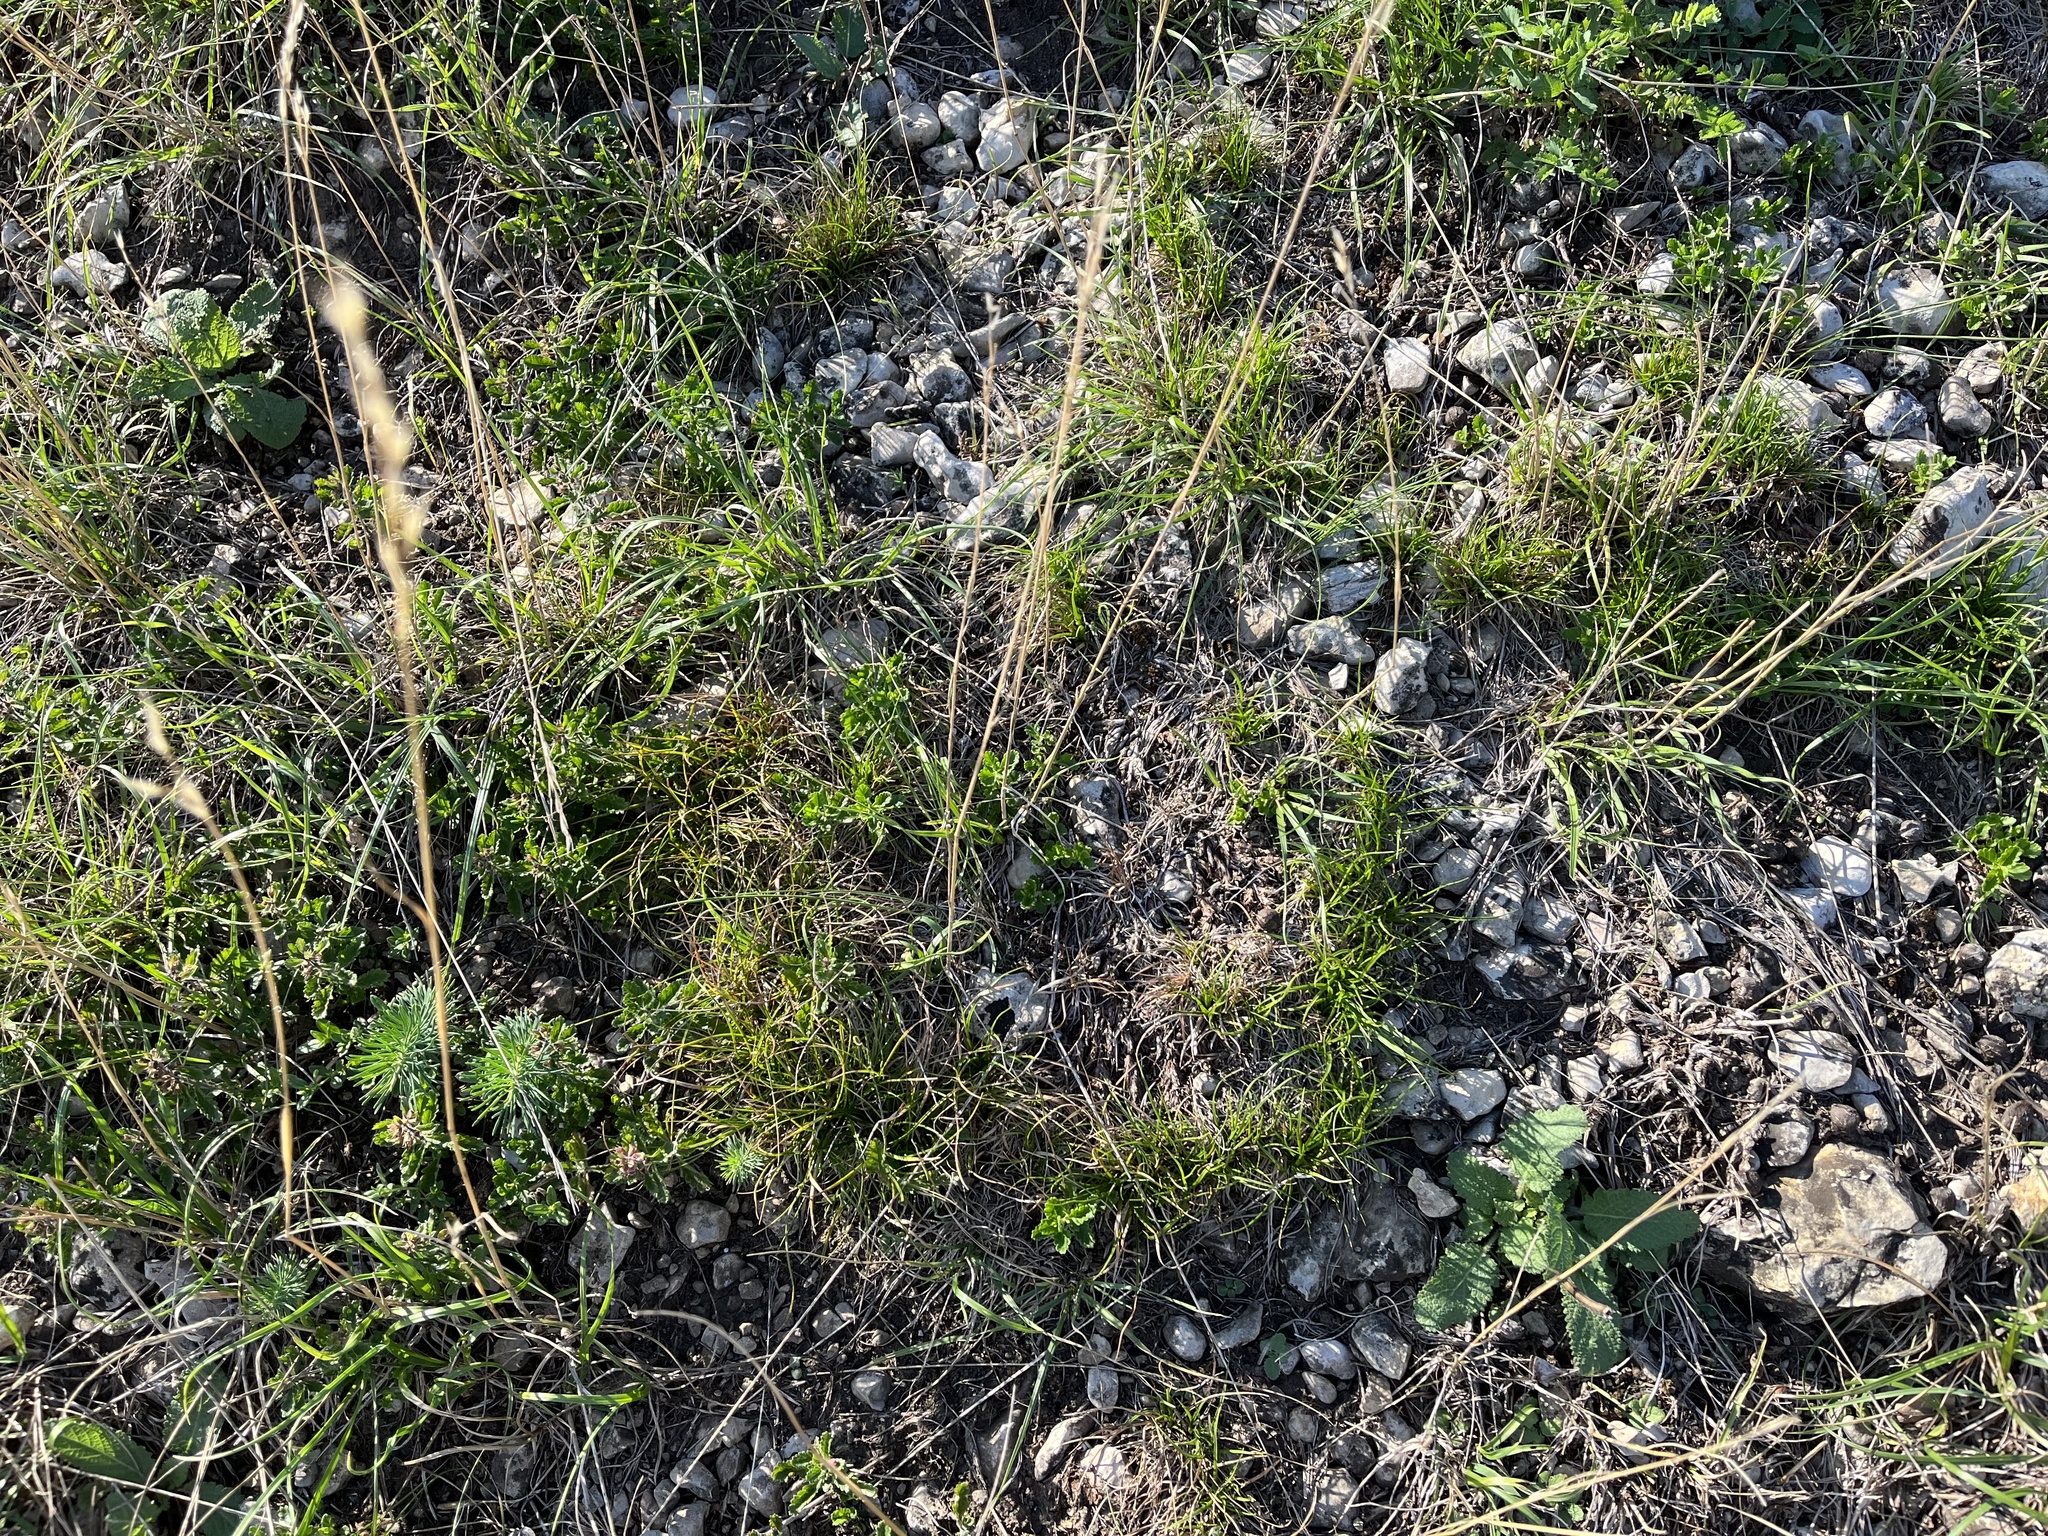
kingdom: Plantae
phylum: Tracheophyta
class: Liliopsida
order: Poales
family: Cyperaceae
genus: Carex
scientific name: Carex humilis
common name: Dwarf sedge
